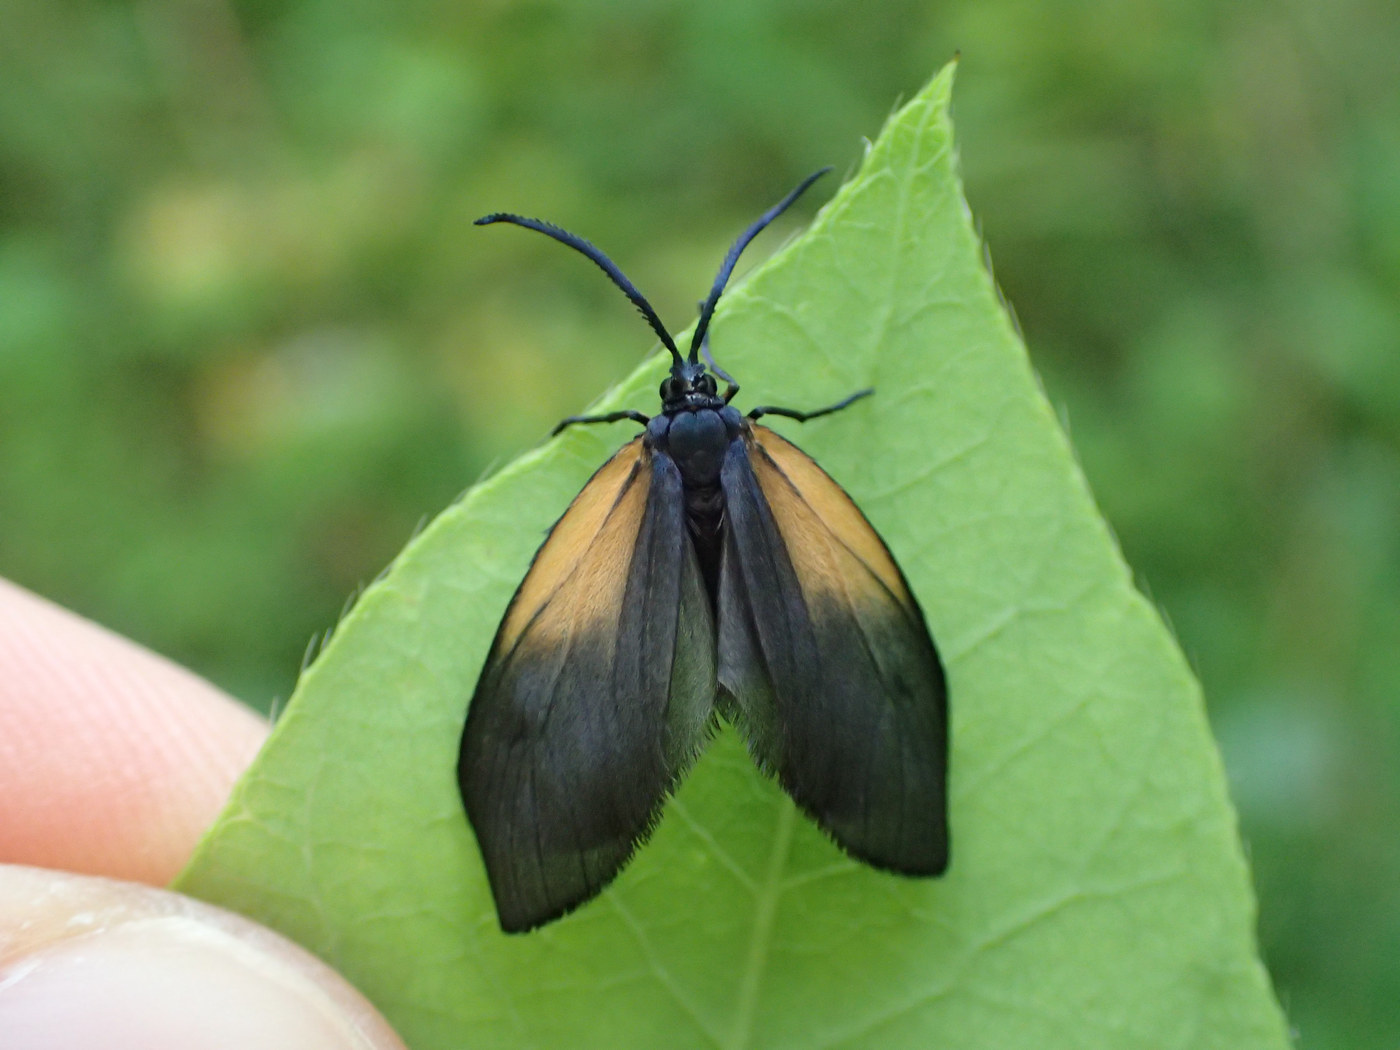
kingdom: Animalia
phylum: Arthropoda
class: Insecta
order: Lepidoptera
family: Zygaenidae
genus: Malthaca
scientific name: Malthaca dimidiata
